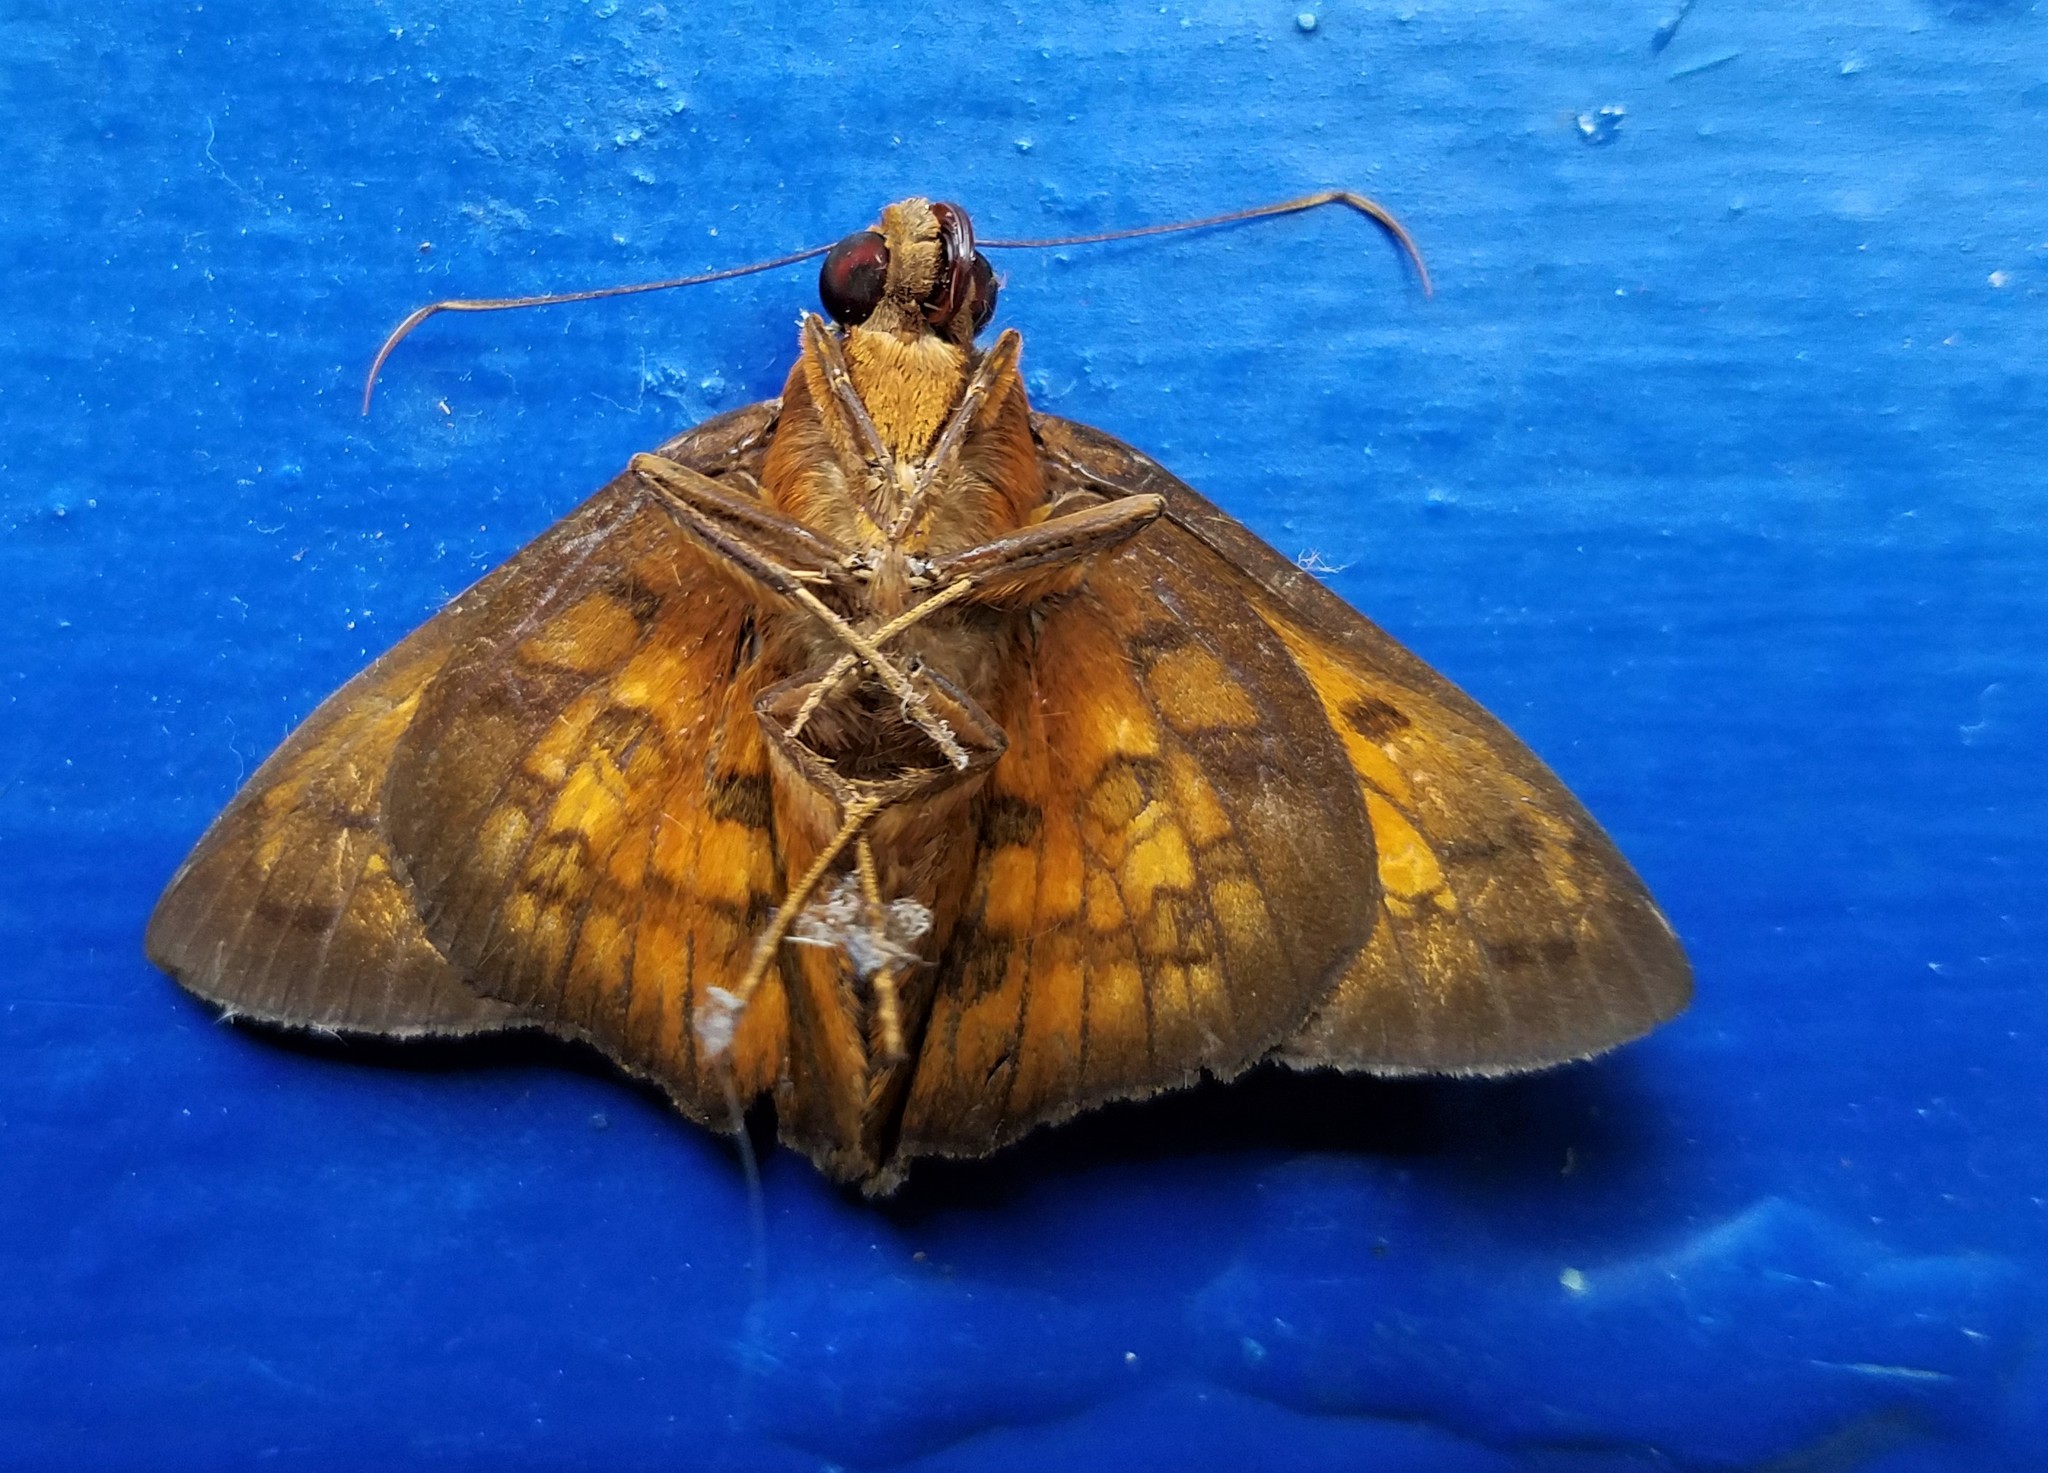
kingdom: Animalia
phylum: Arthropoda
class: Insecta
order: Lepidoptera
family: Hesperiidae
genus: Bungalotis
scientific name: Bungalotis midas
